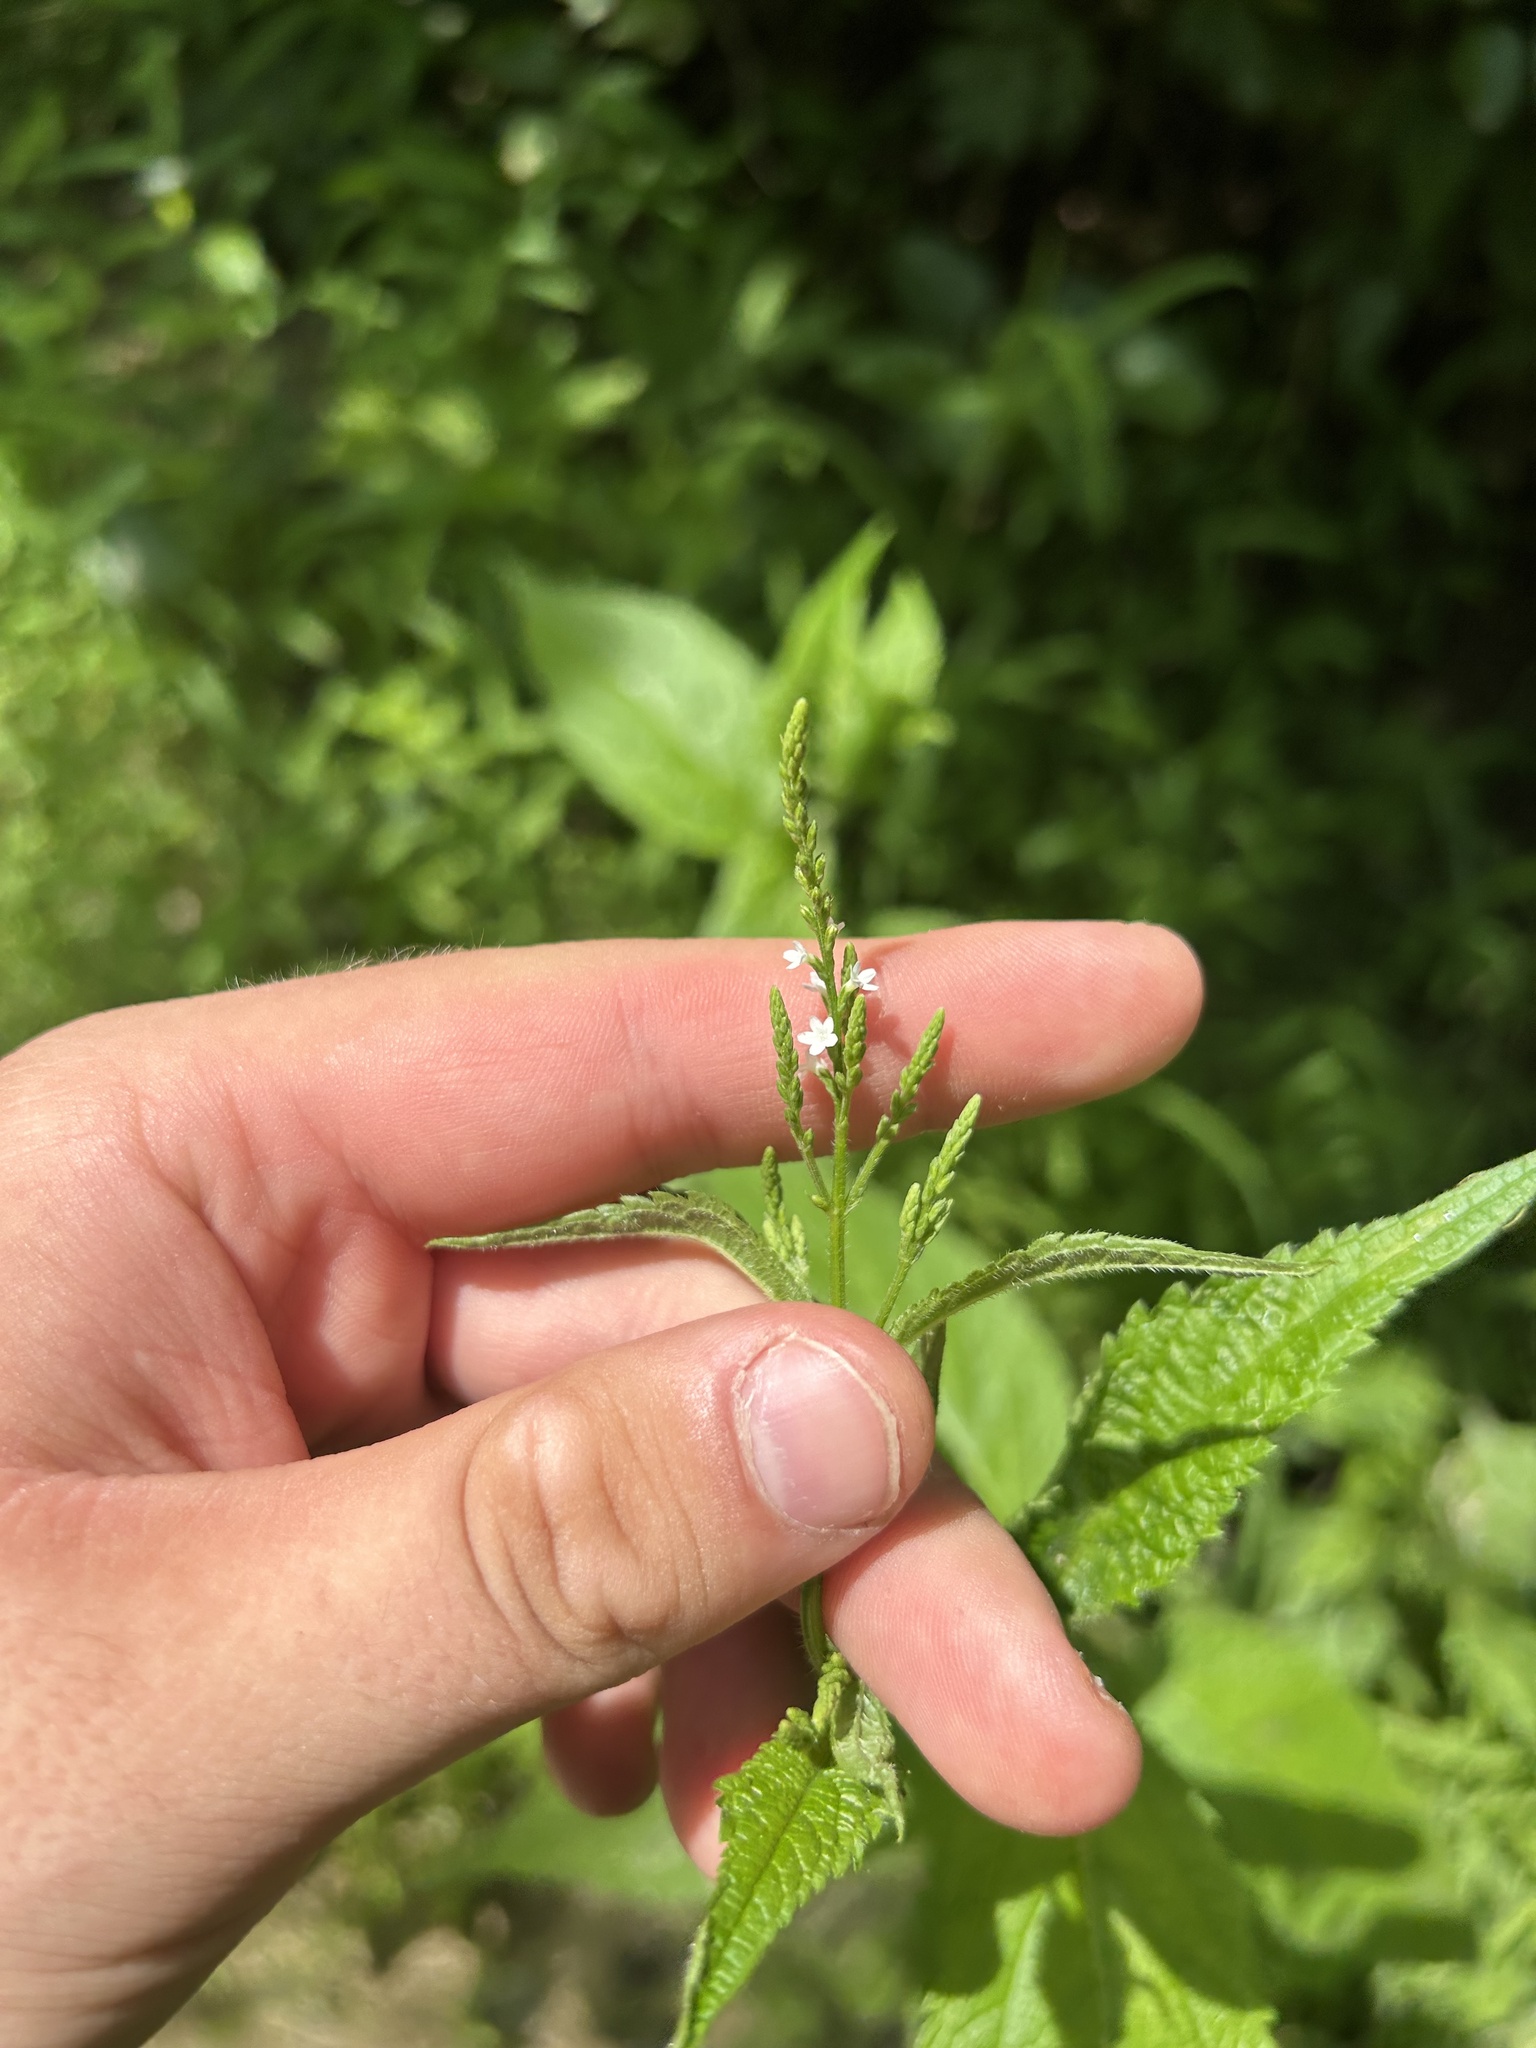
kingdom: Plantae
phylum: Tracheophyta
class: Magnoliopsida
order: Lamiales
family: Verbenaceae
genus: Verbena
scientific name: Verbena urticifolia
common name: Nettle-leaved vervain
